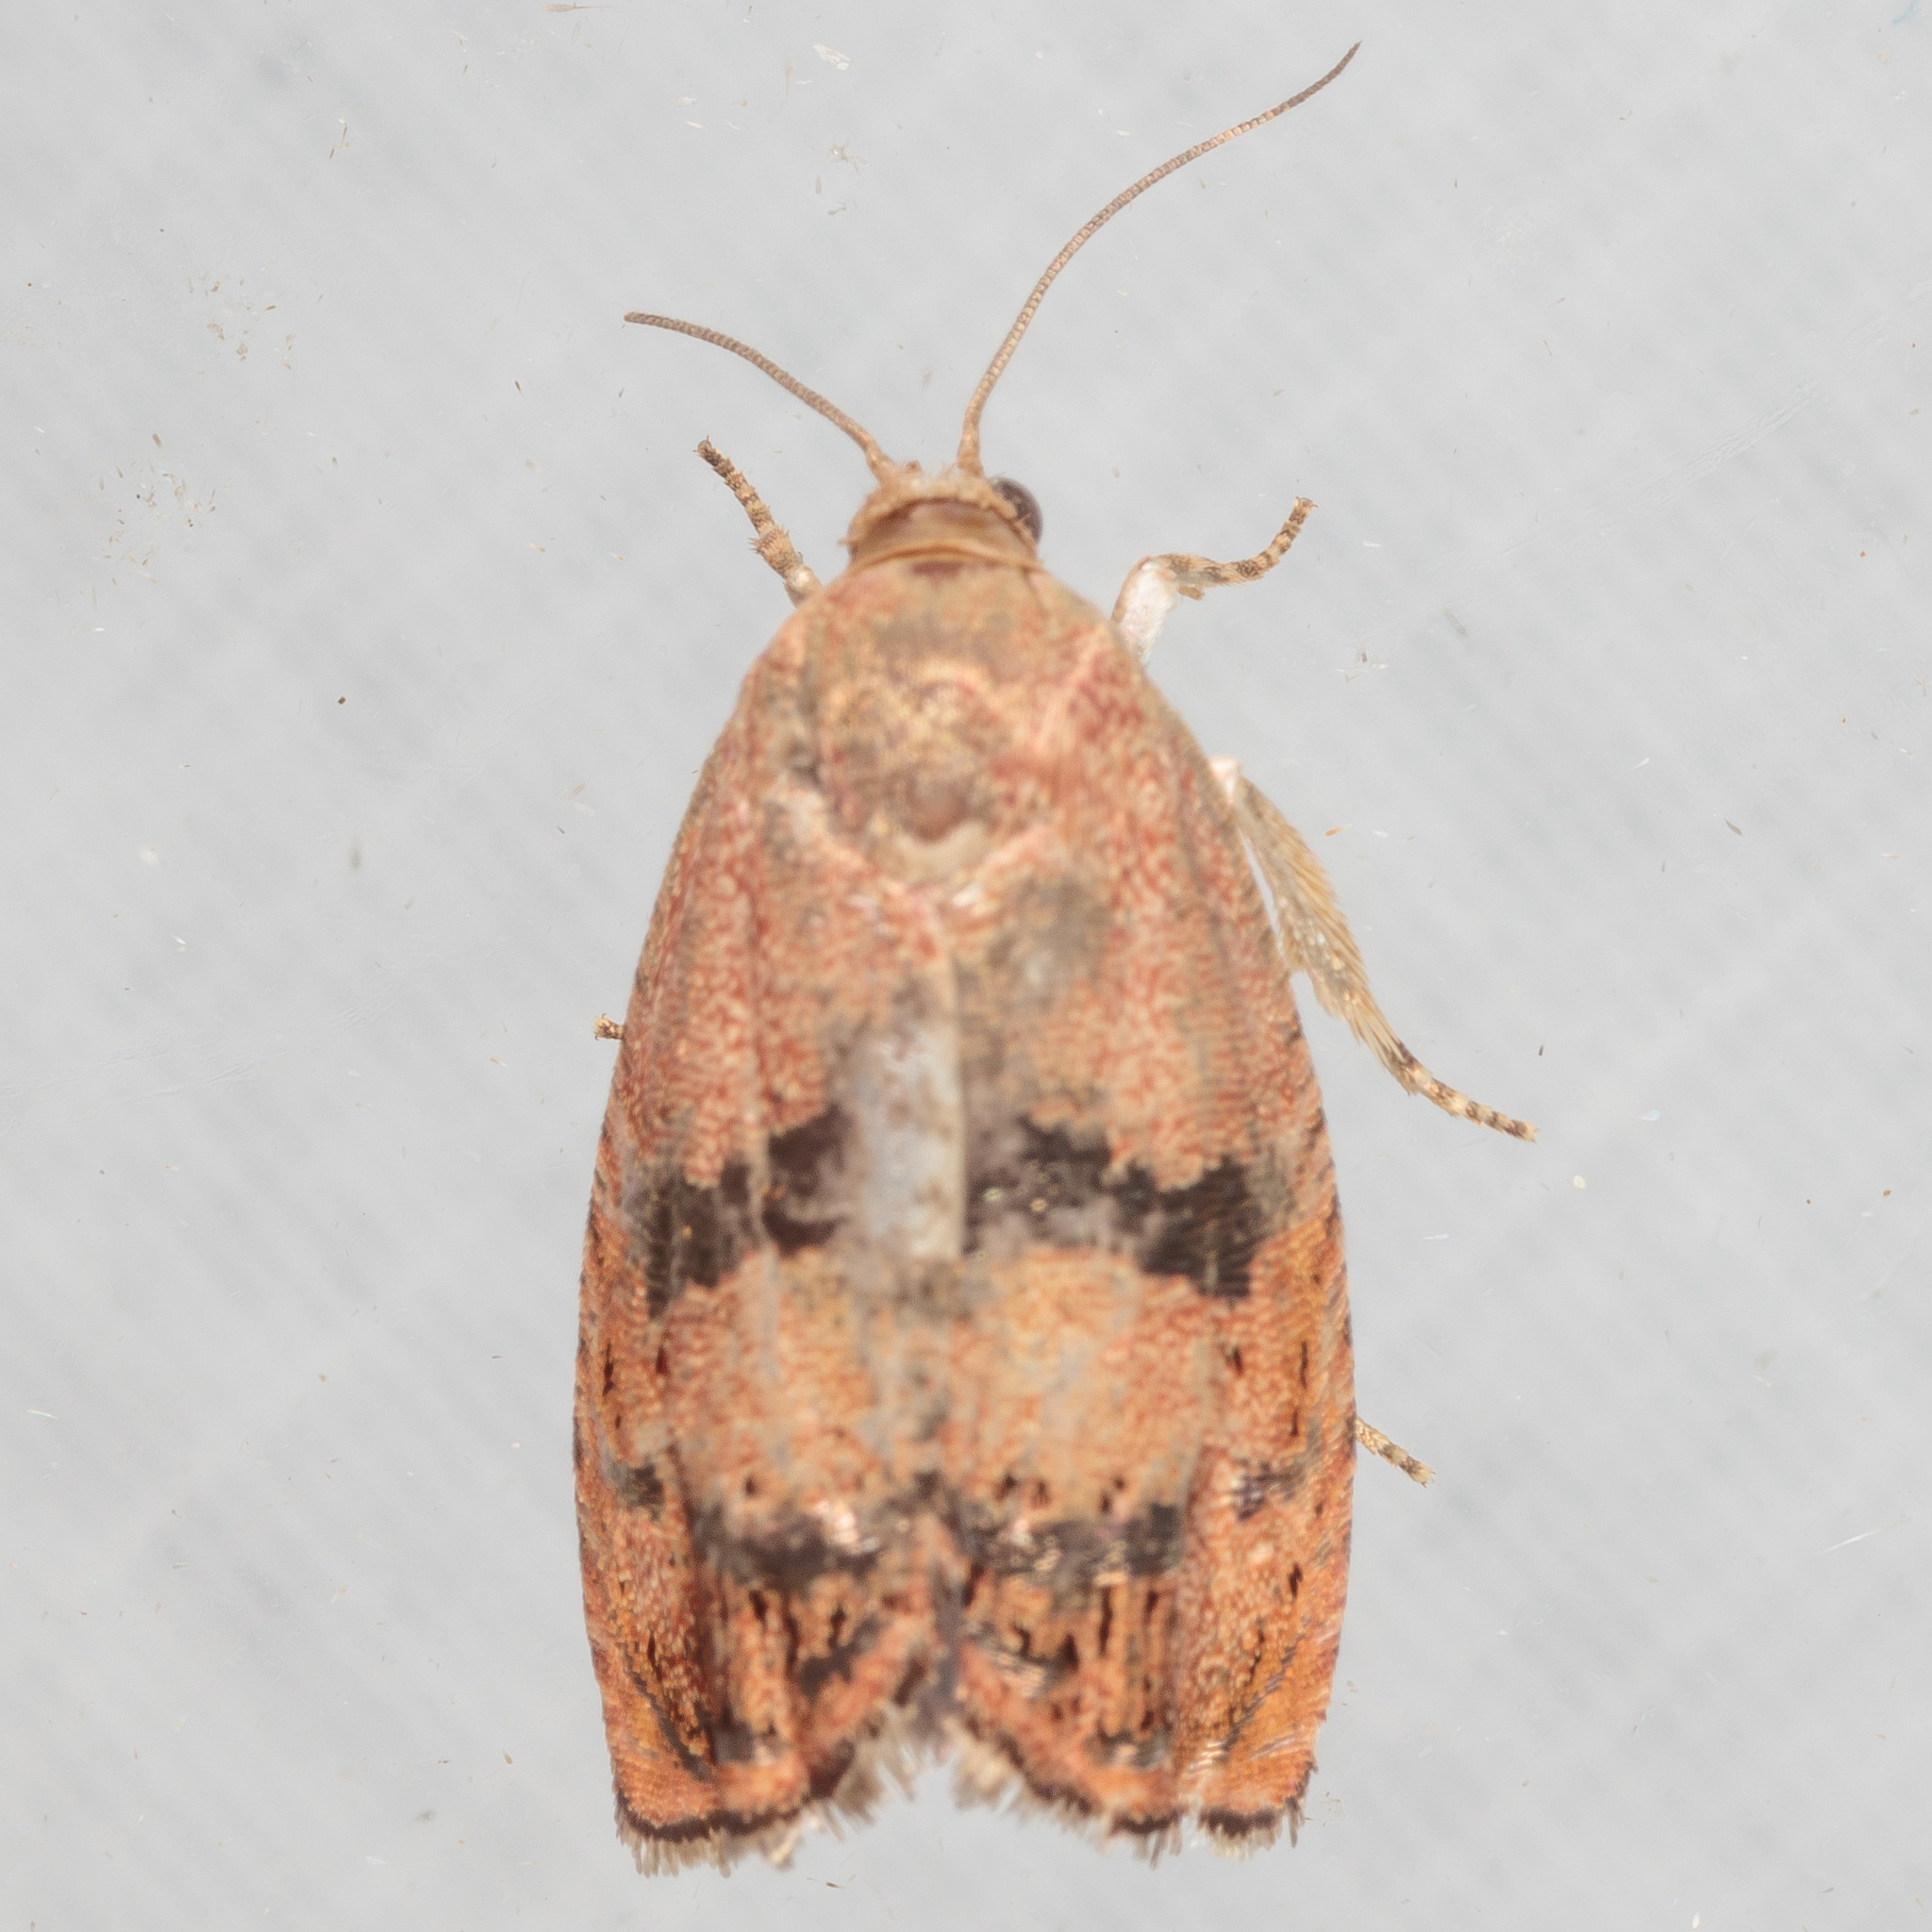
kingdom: Animalia
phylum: Arthropoda
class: Insecta
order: Lepidoptera
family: Tortricidae
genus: Cydia
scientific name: Cydia latiferreana
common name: Filbertworm moth
